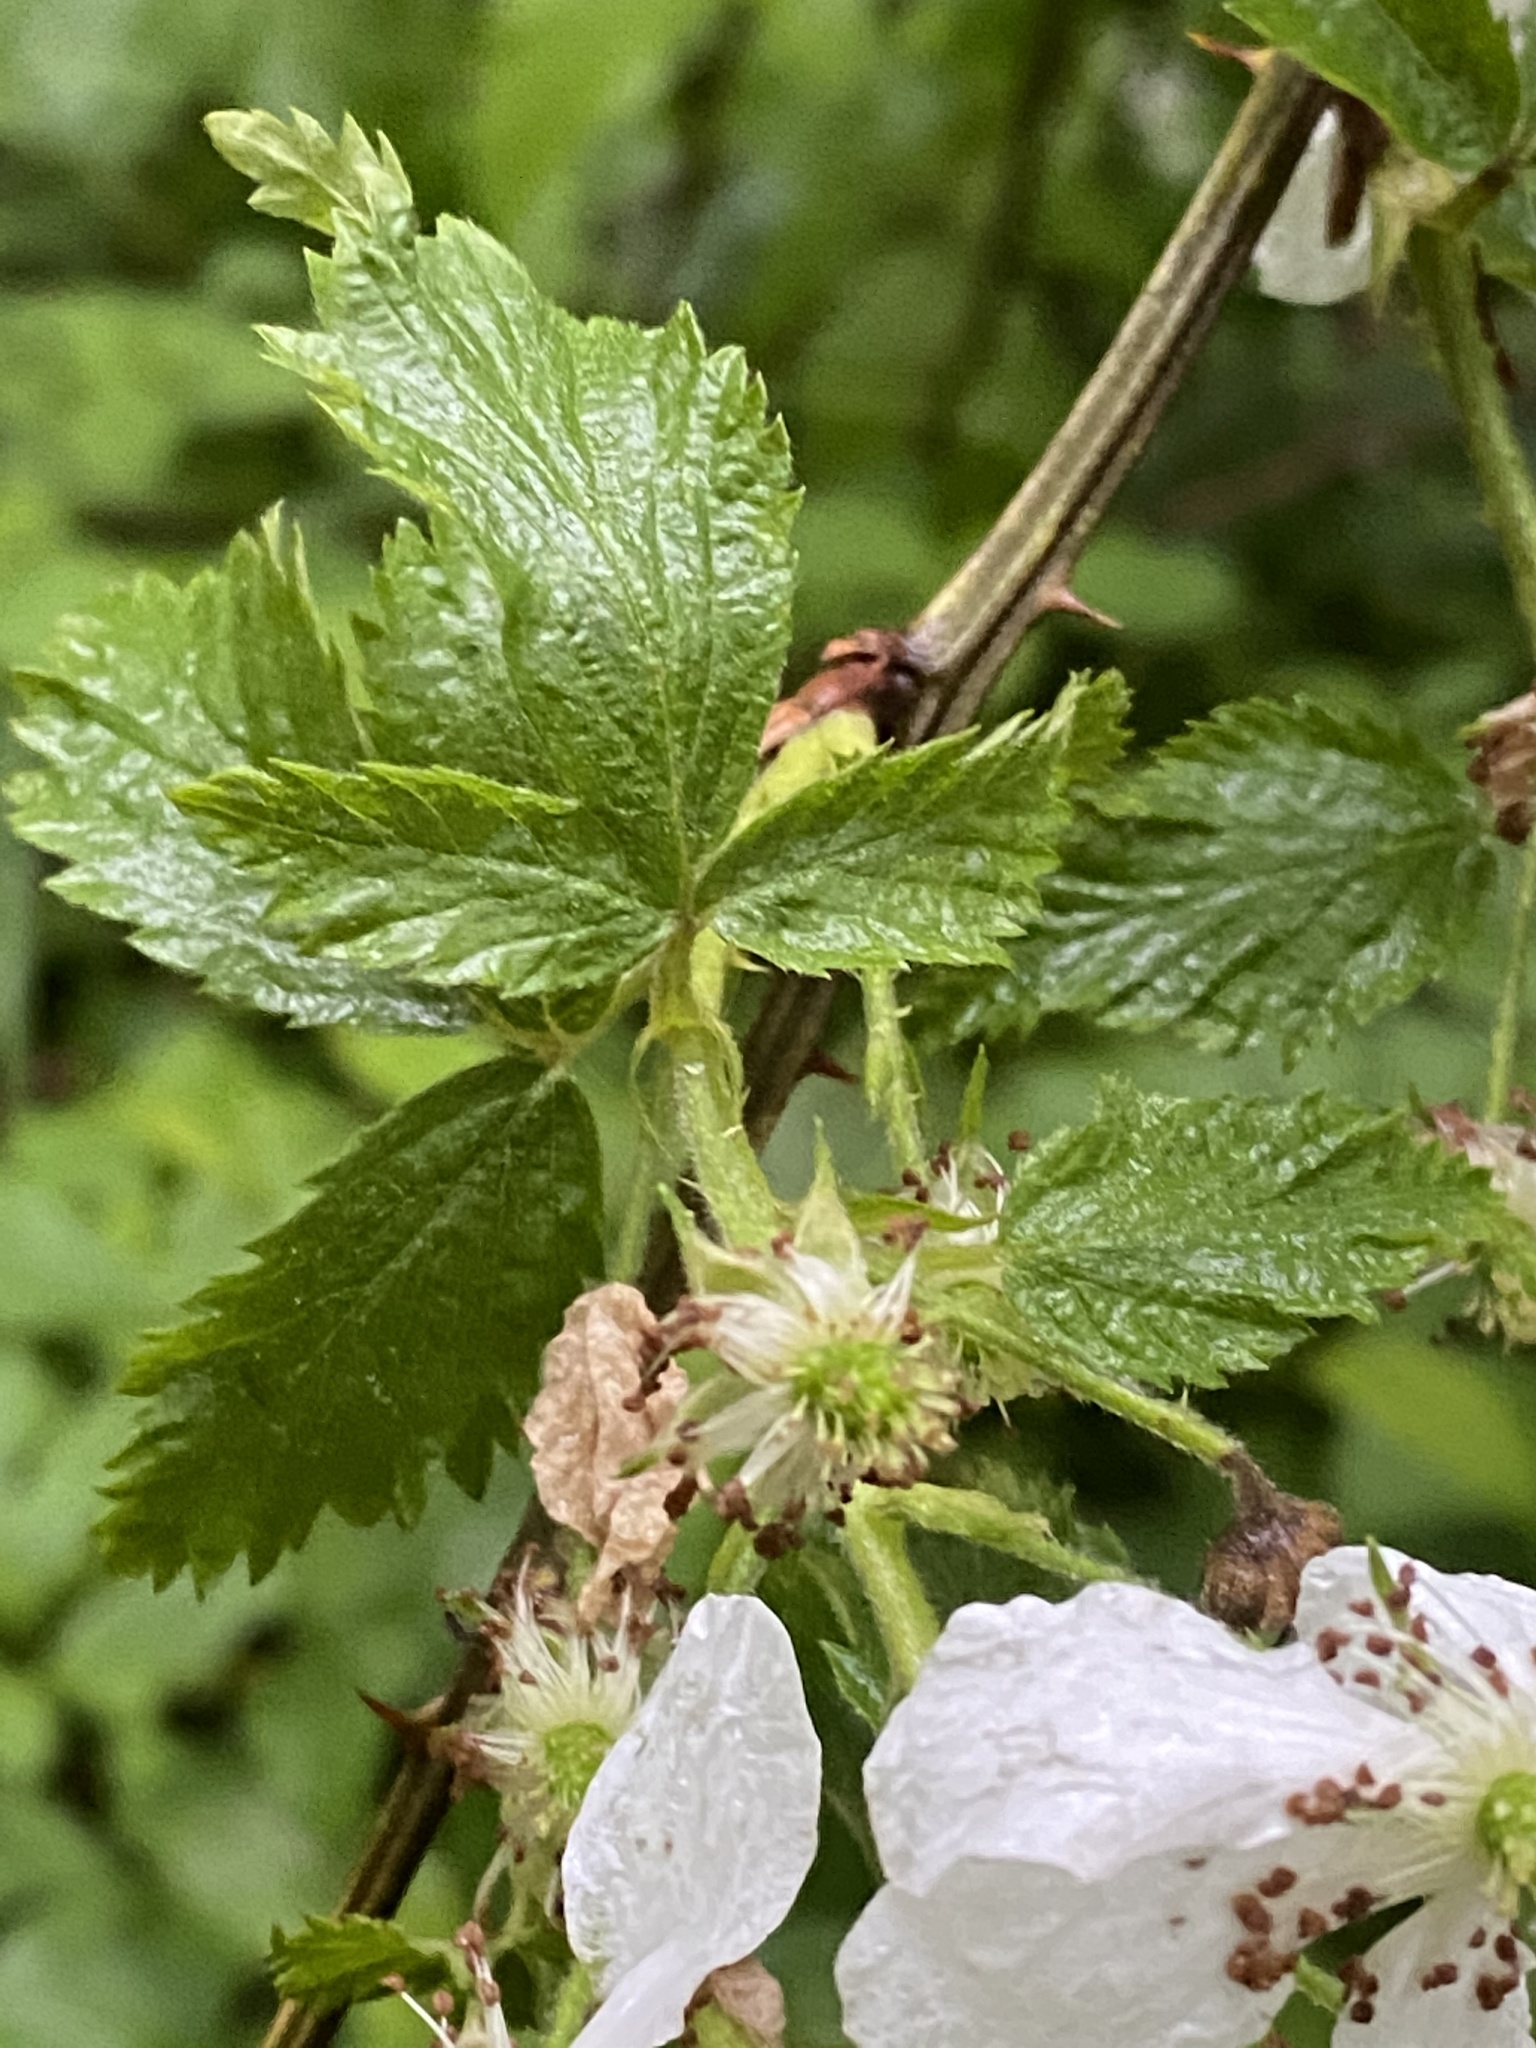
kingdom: Plantae
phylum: Tracheophyta
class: Magnoliopsida
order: Rosales
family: Rosaceae
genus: Rubus
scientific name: Rubus allegheniensis
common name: Allegheny blackberry
